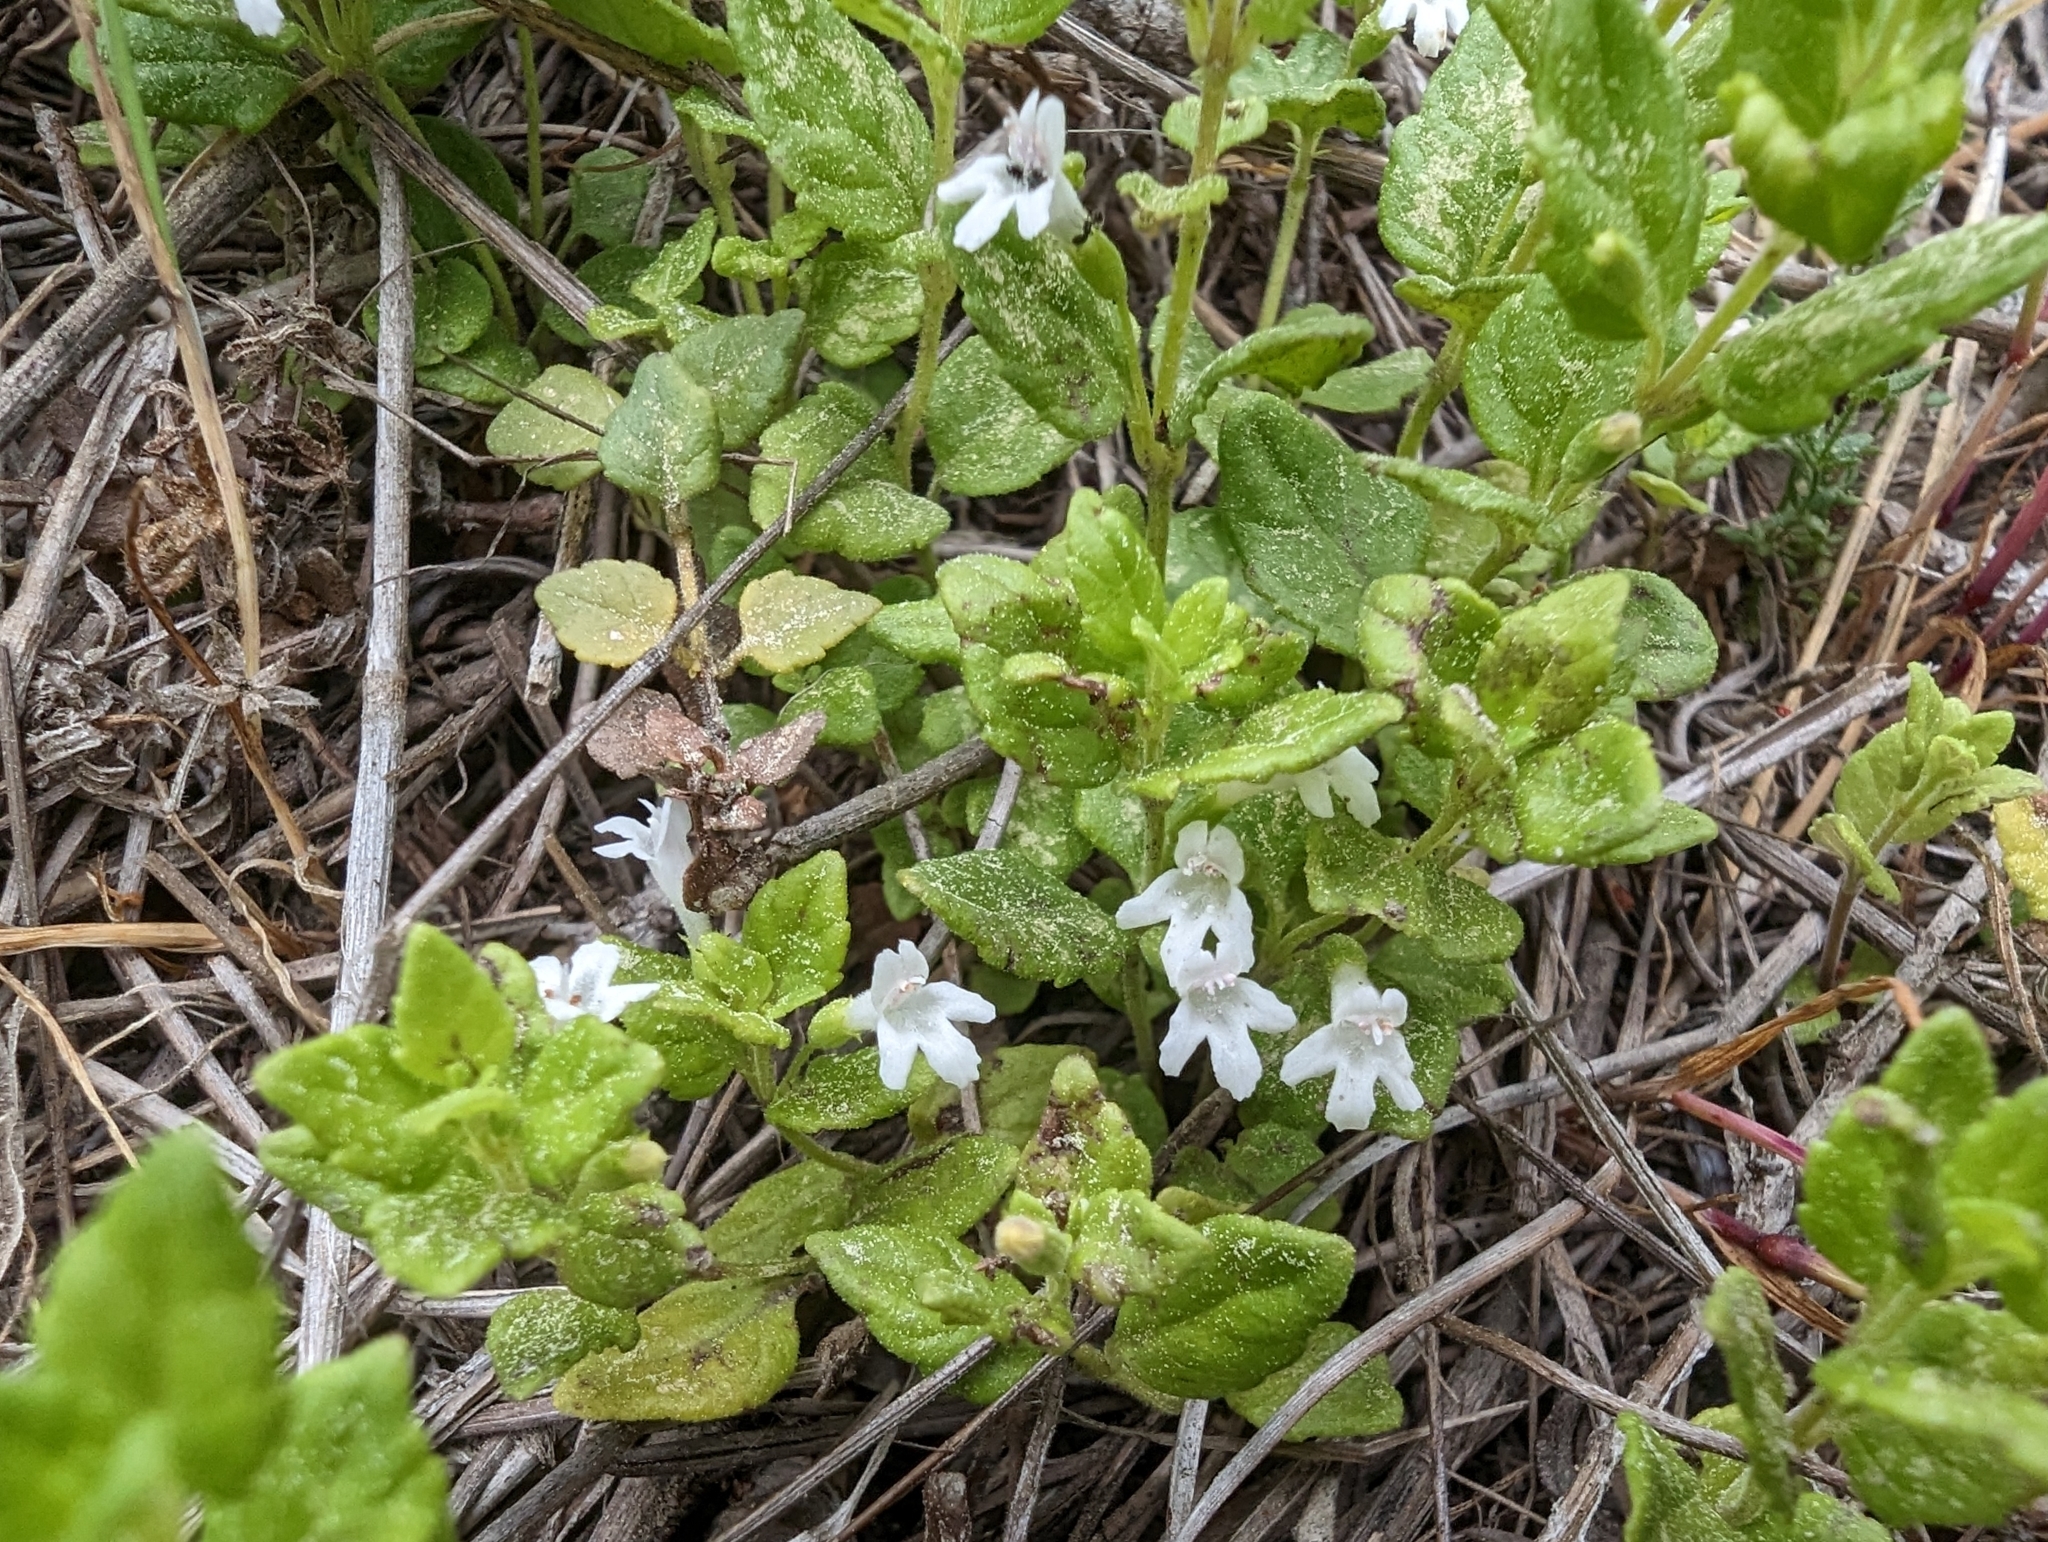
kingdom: Plantae
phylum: Tracheophyta
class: Magnoliopsida
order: Lamiales
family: Lamiaceae
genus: Micromeria
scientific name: Micromeria douglasii
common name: Yerba buena
